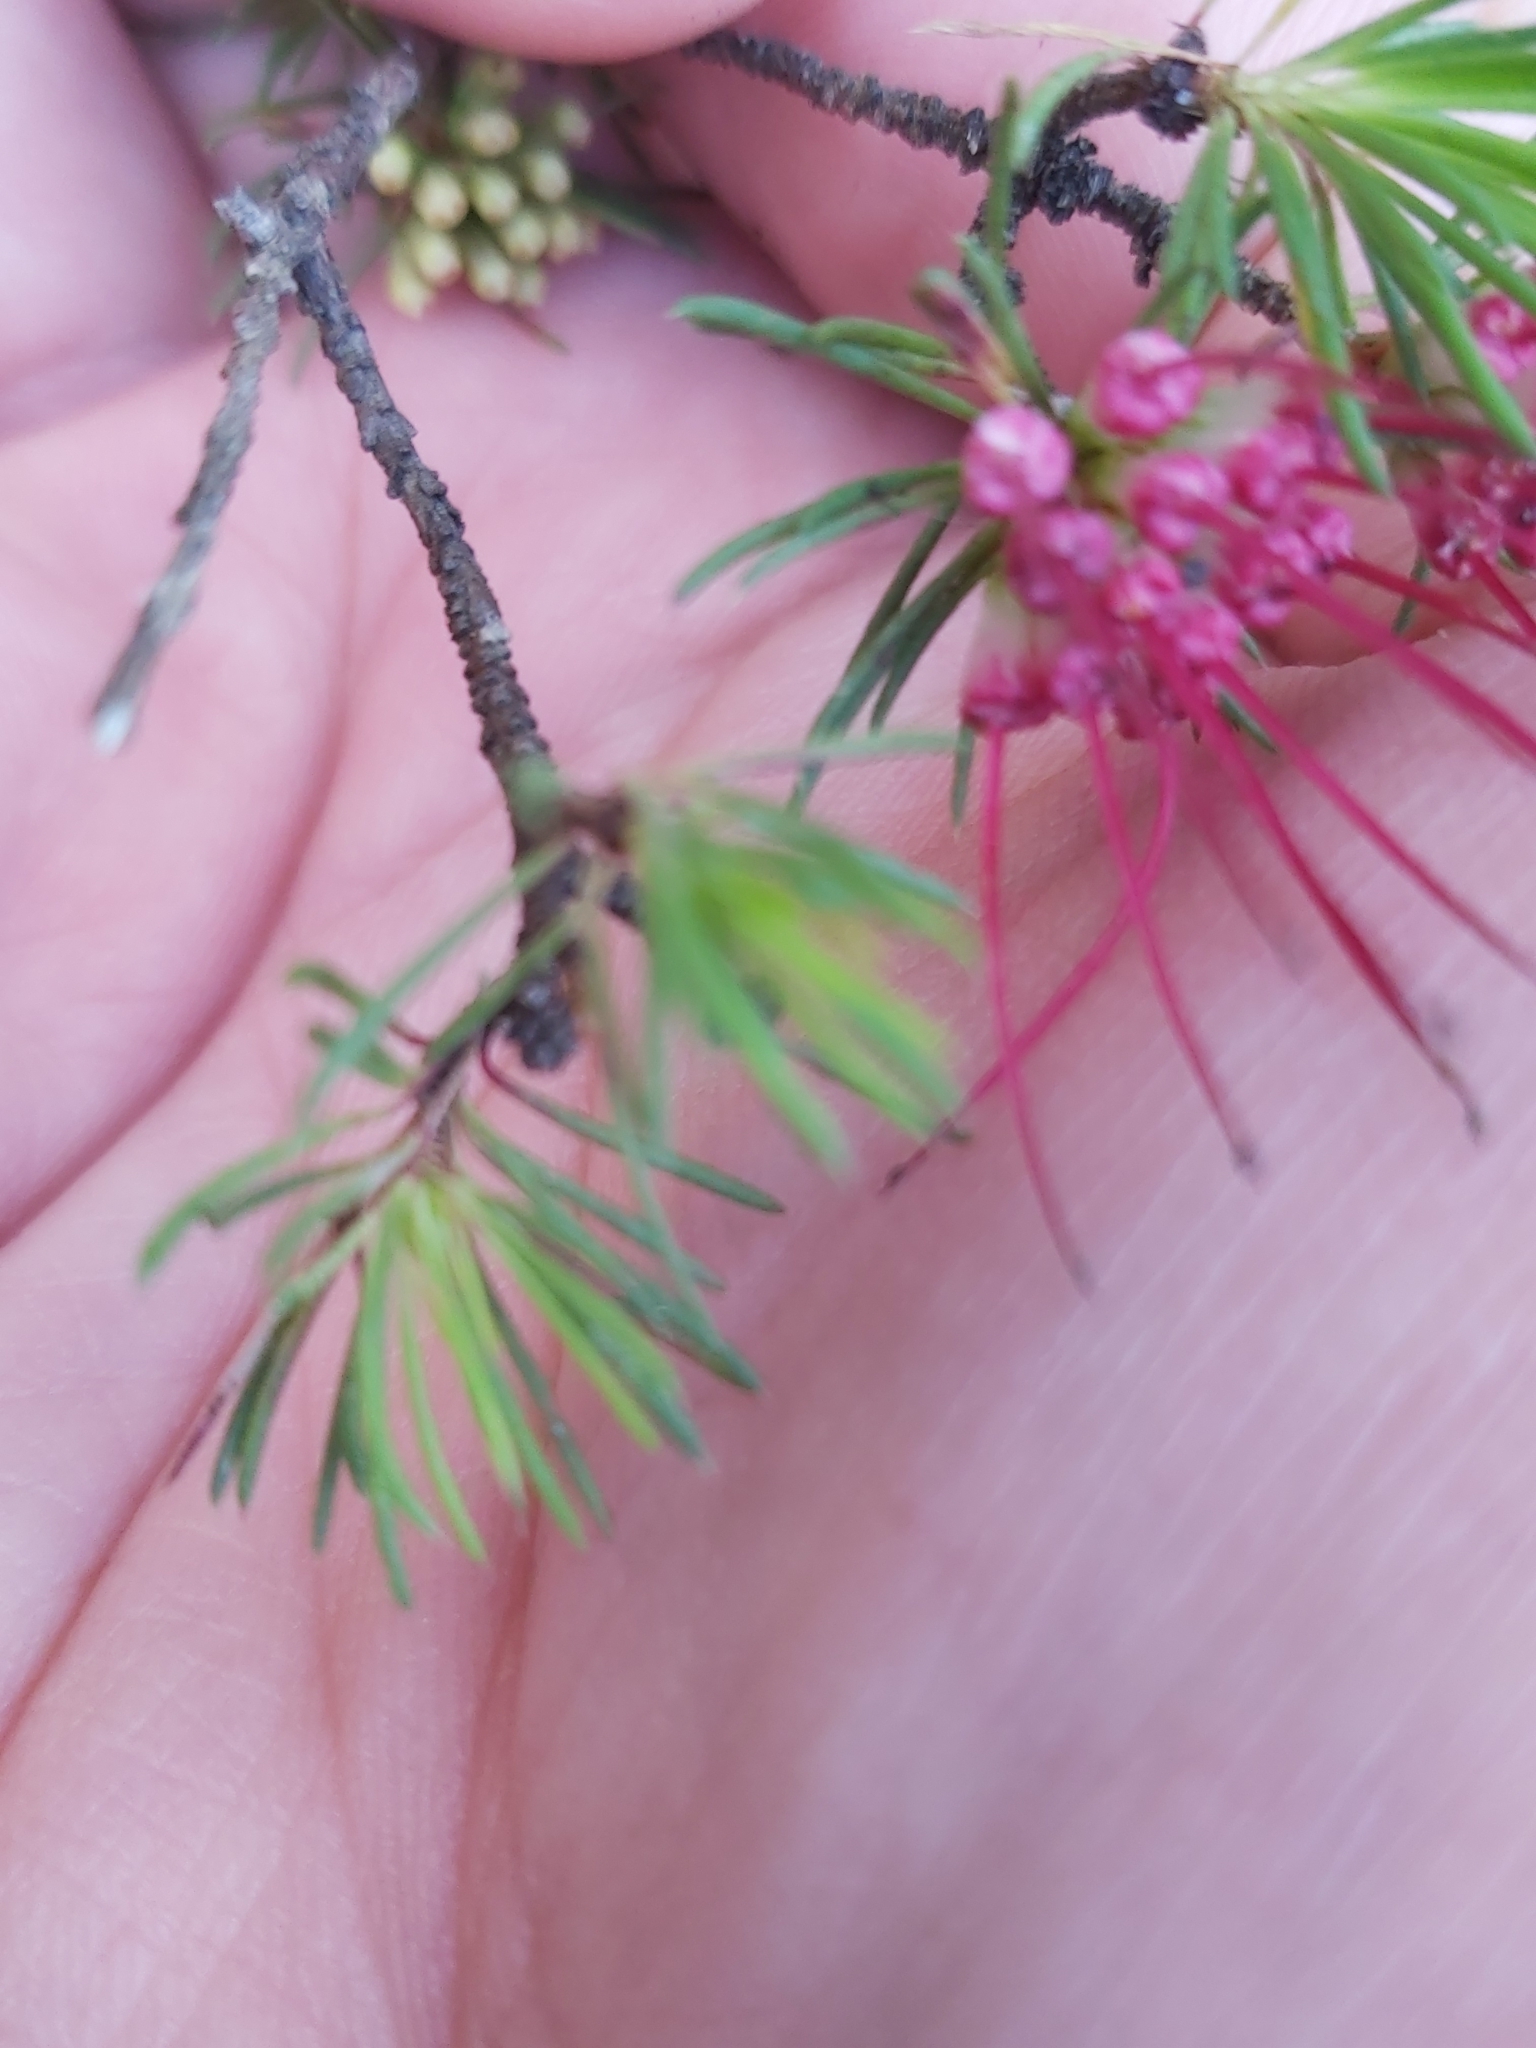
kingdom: Plantae
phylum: Tracheophyta
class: Magnoliopsida
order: Myrtales
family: Myrtaceae
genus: Darwinia
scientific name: Darwinia fascicularis
